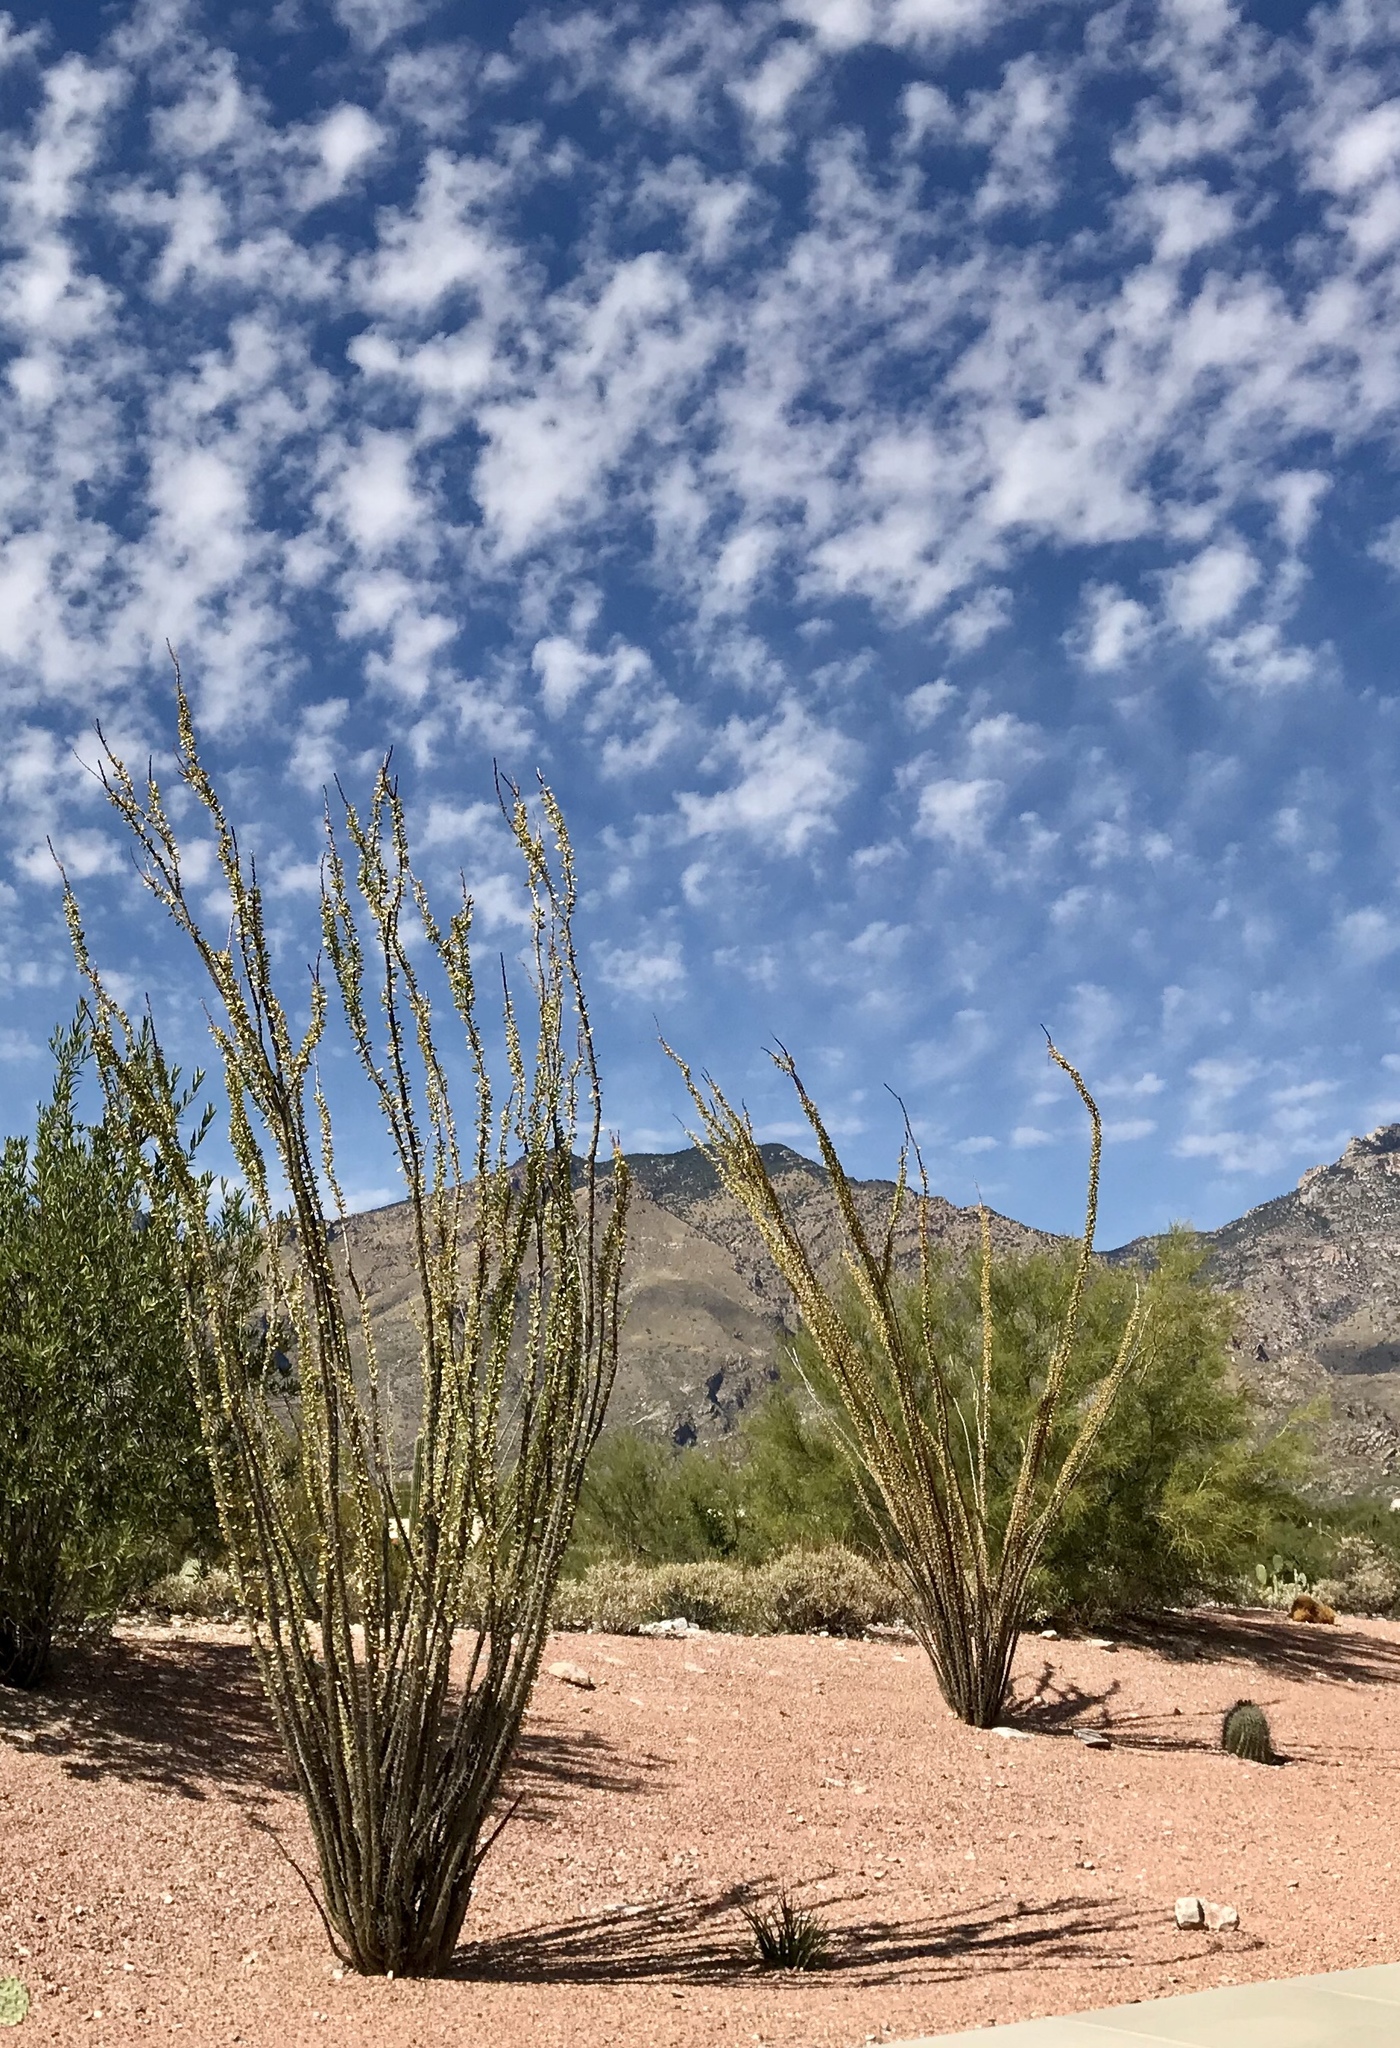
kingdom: Plantae
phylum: Tracheophyta
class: Magnoliopsida
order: Ericales
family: Fouquieriaceae
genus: Fouquieria
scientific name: Fouquieria splendens
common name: Vine-cactus
